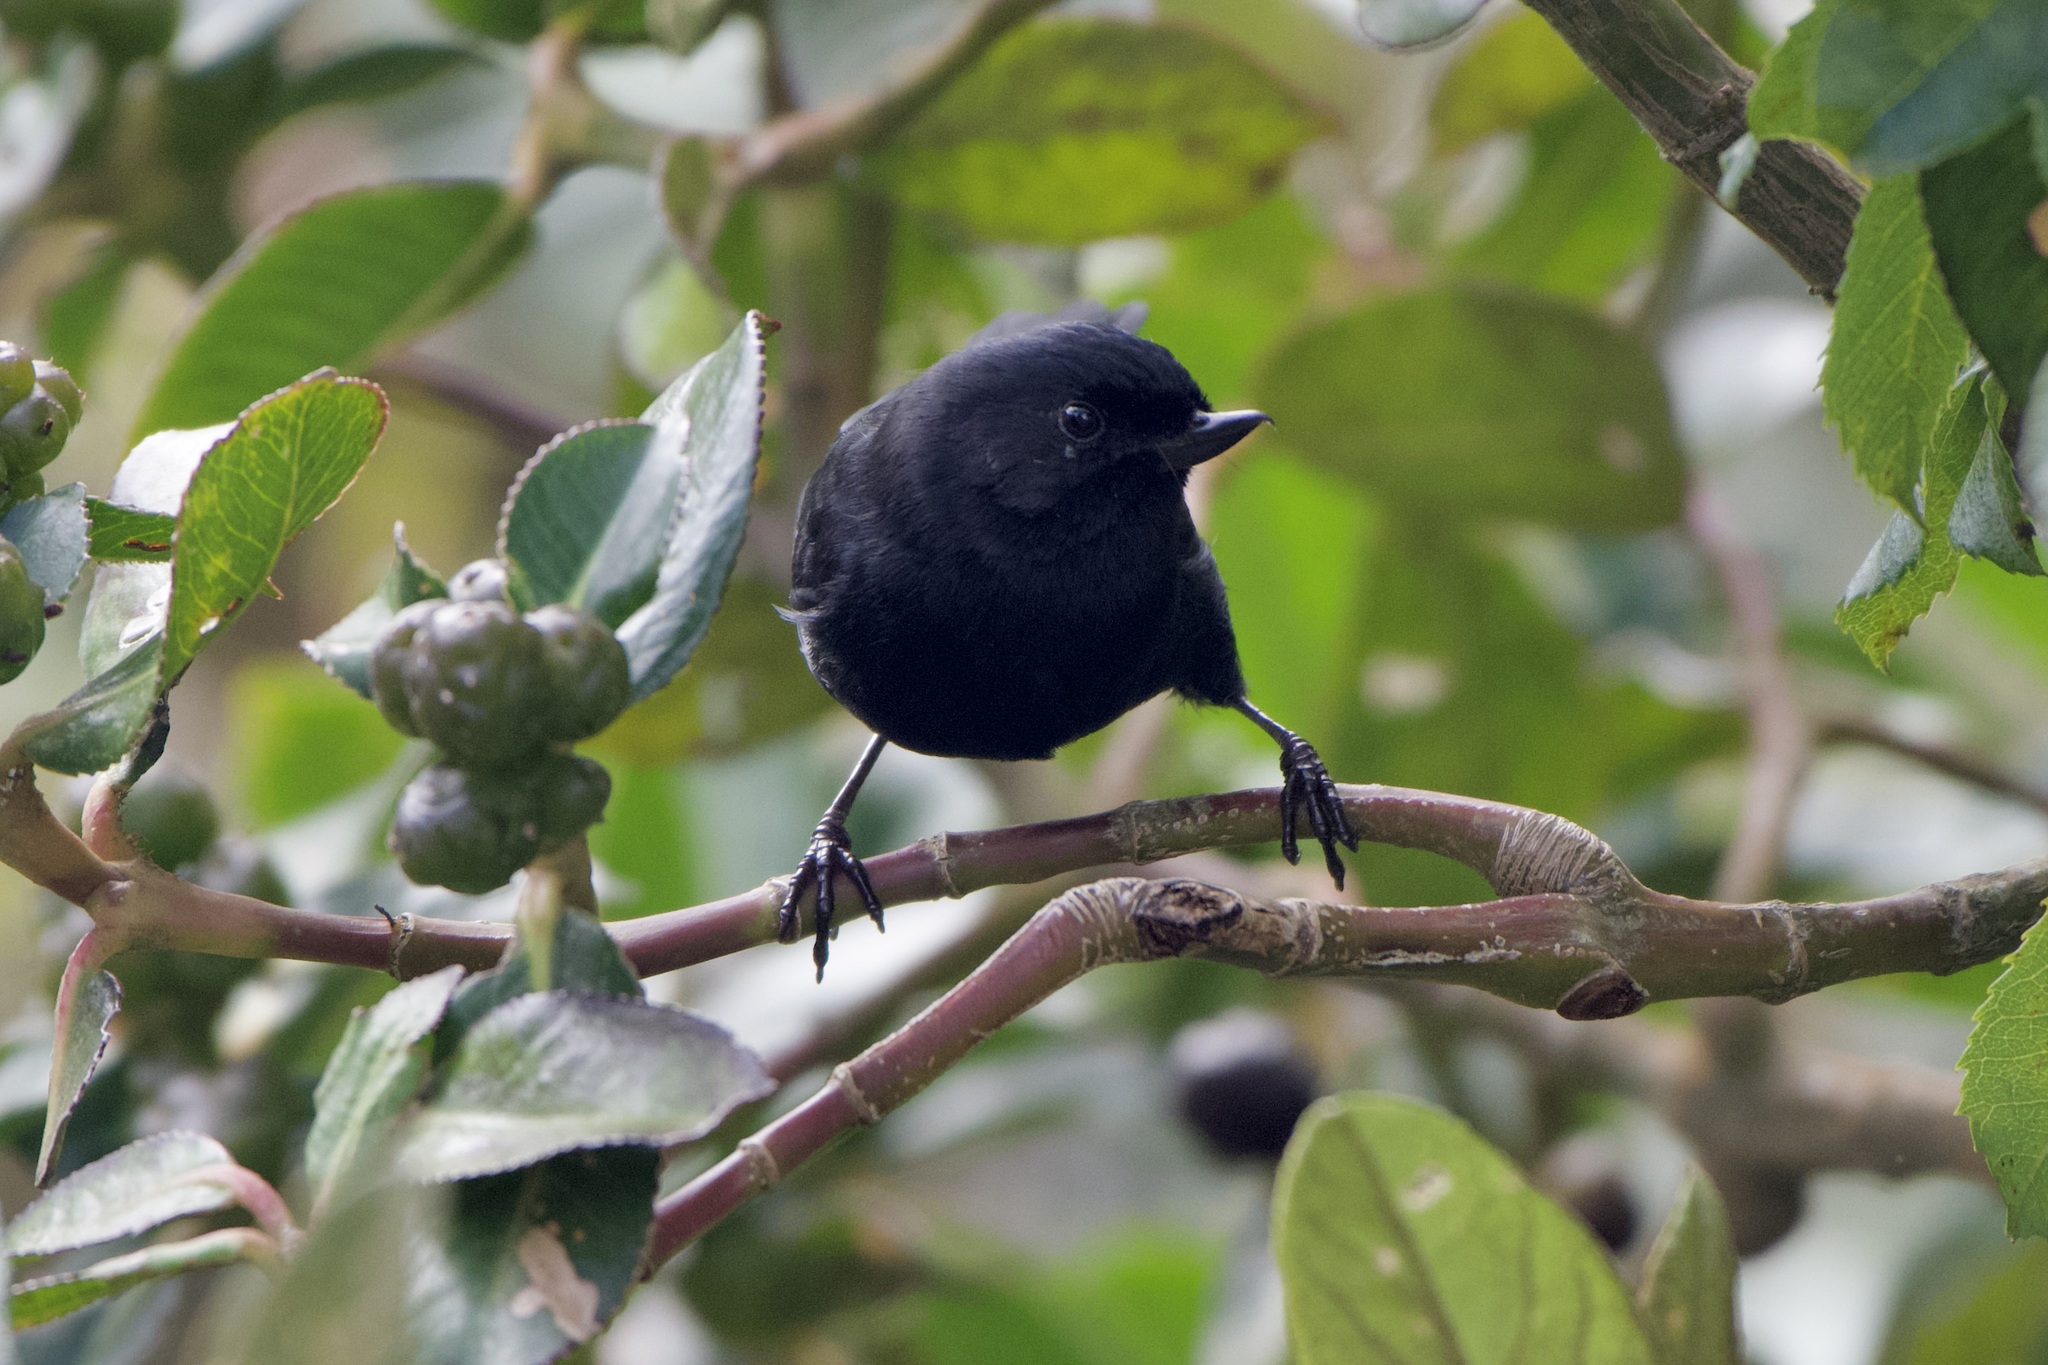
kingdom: Animalia
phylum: Chordata
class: Aves
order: Passeriformes
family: Thraupidae
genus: Diglossa
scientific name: Diglossa humeralis
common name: Black flowerpiercer
